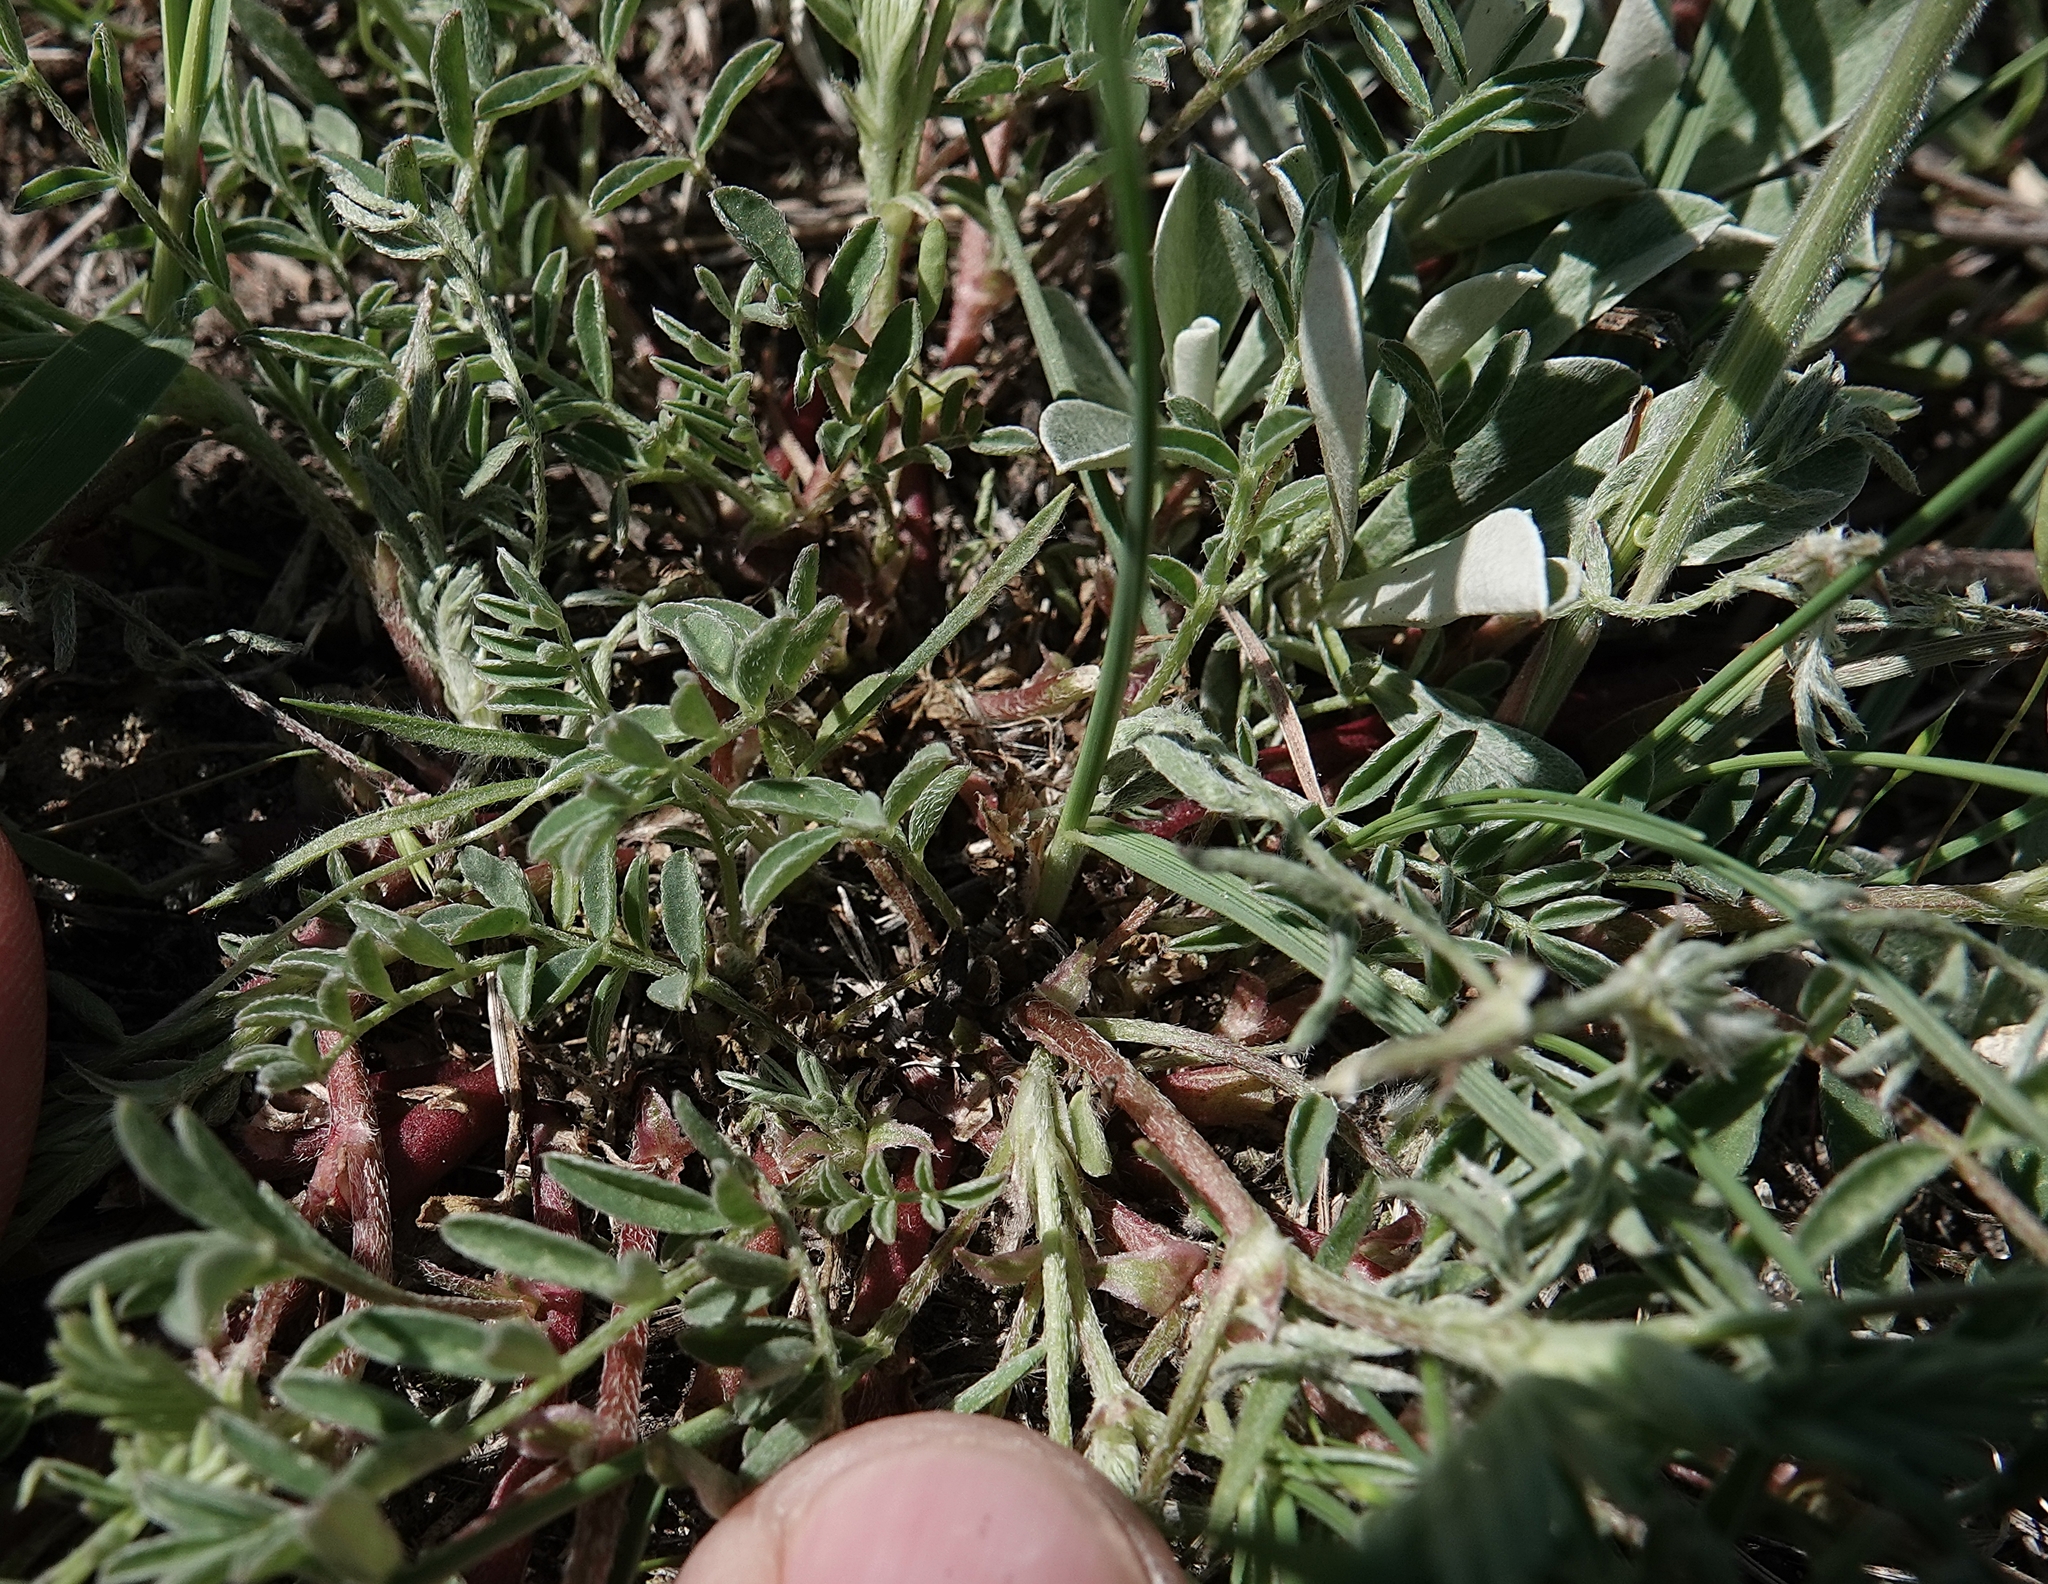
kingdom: Plantae
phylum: Tracheophyta
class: Magnoliopsida
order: Fabales
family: Fabaceae
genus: Astragalus
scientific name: Astragalus crassicarpus
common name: Ground-plum milk-vetch
